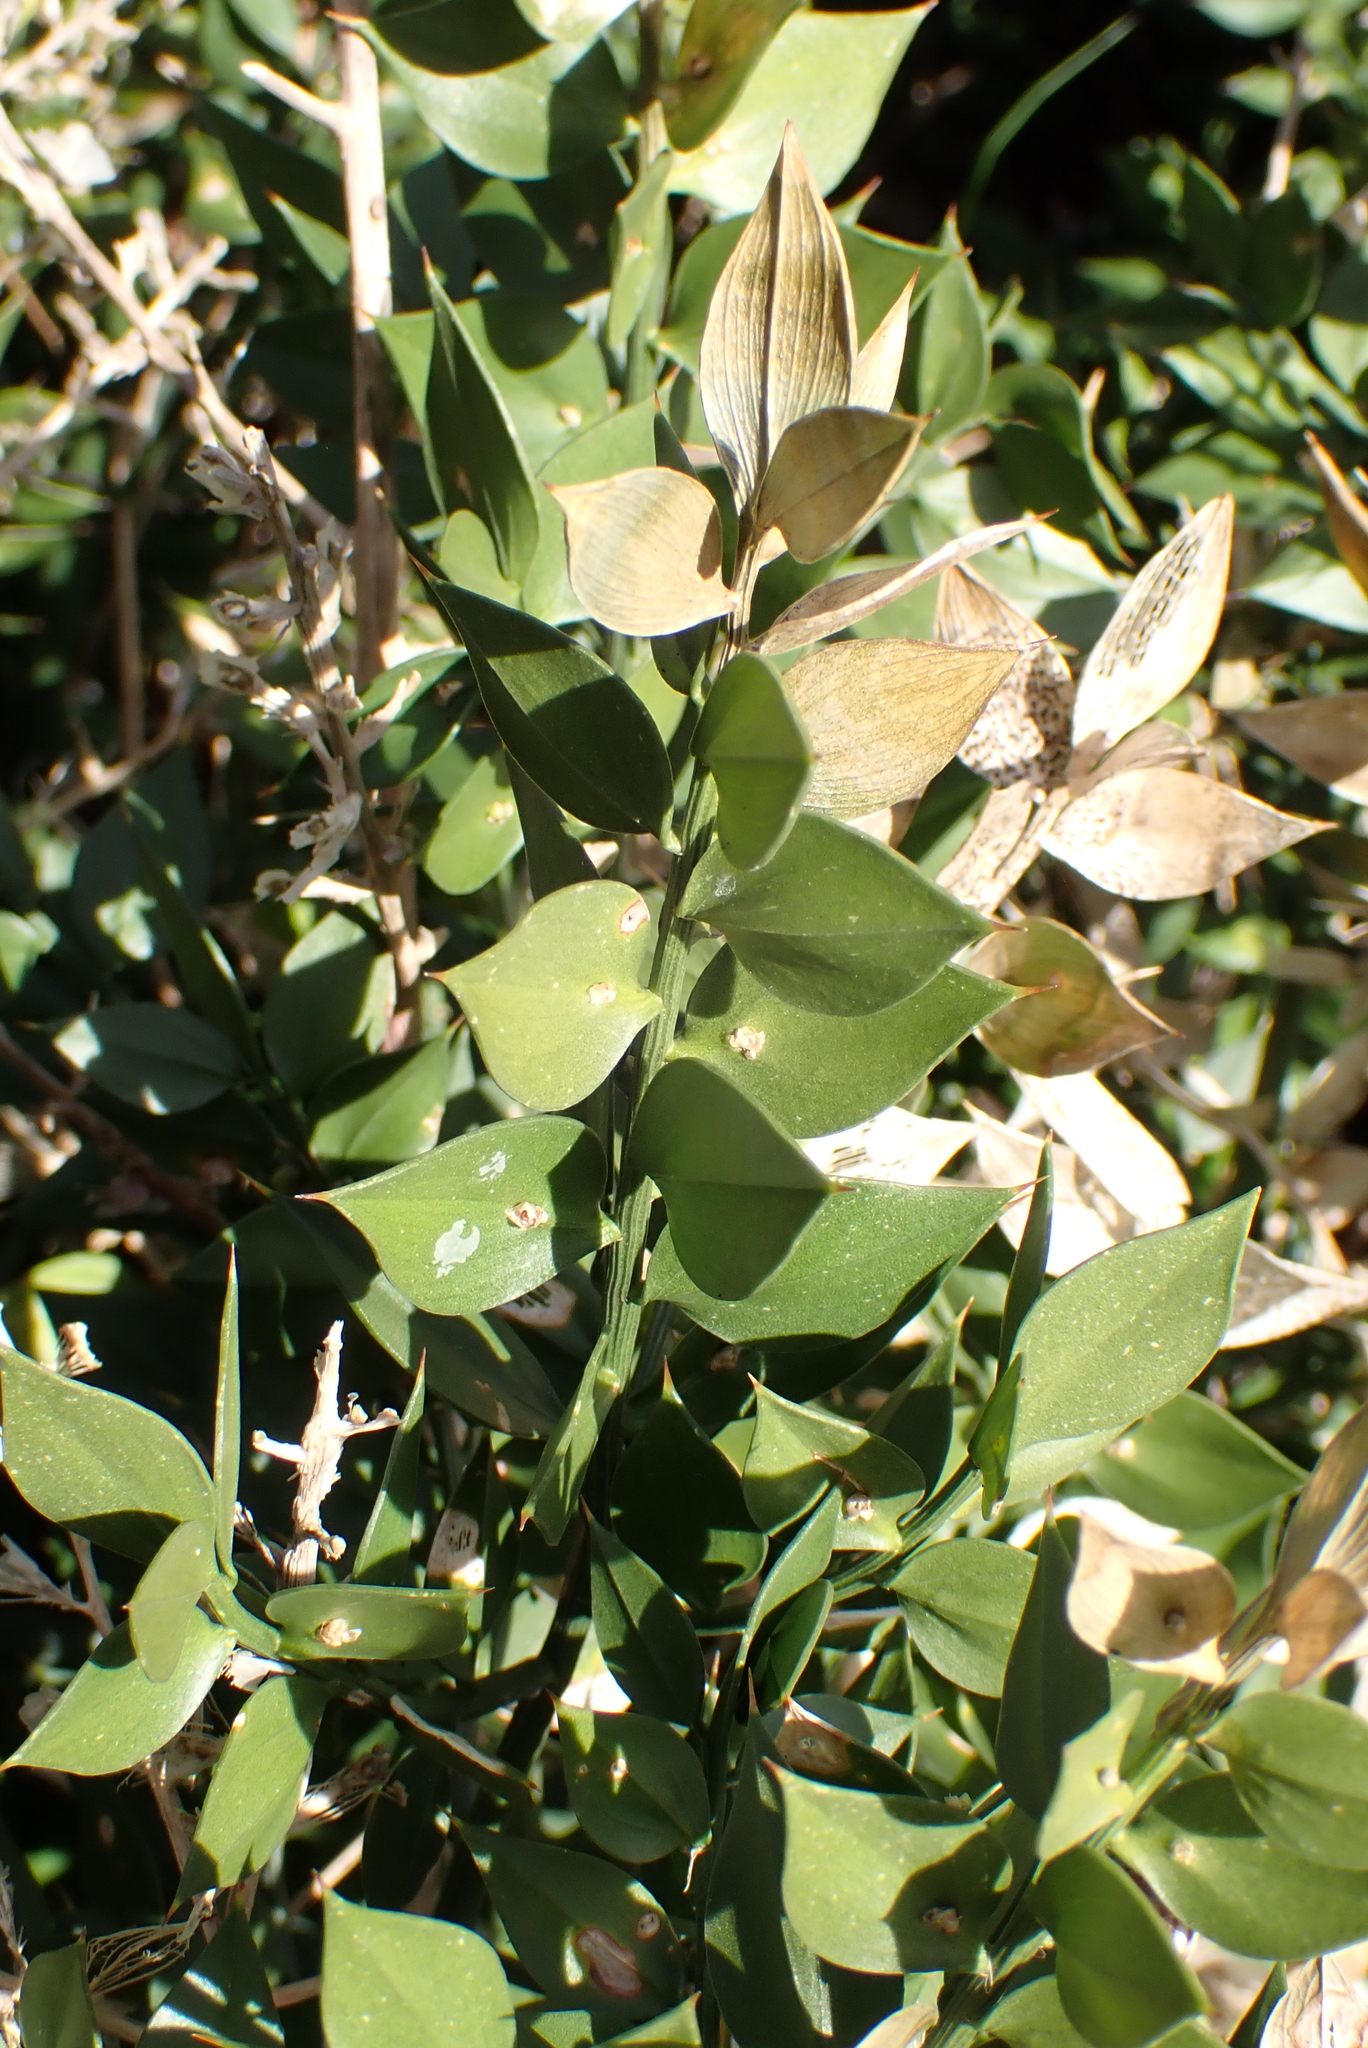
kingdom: Plantae
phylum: Tracheophyta
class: Liliopsida
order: Asparagales
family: Asparagaceae
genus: Ruscus
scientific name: Ruscus aculeatus
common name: Butcher's-broom
